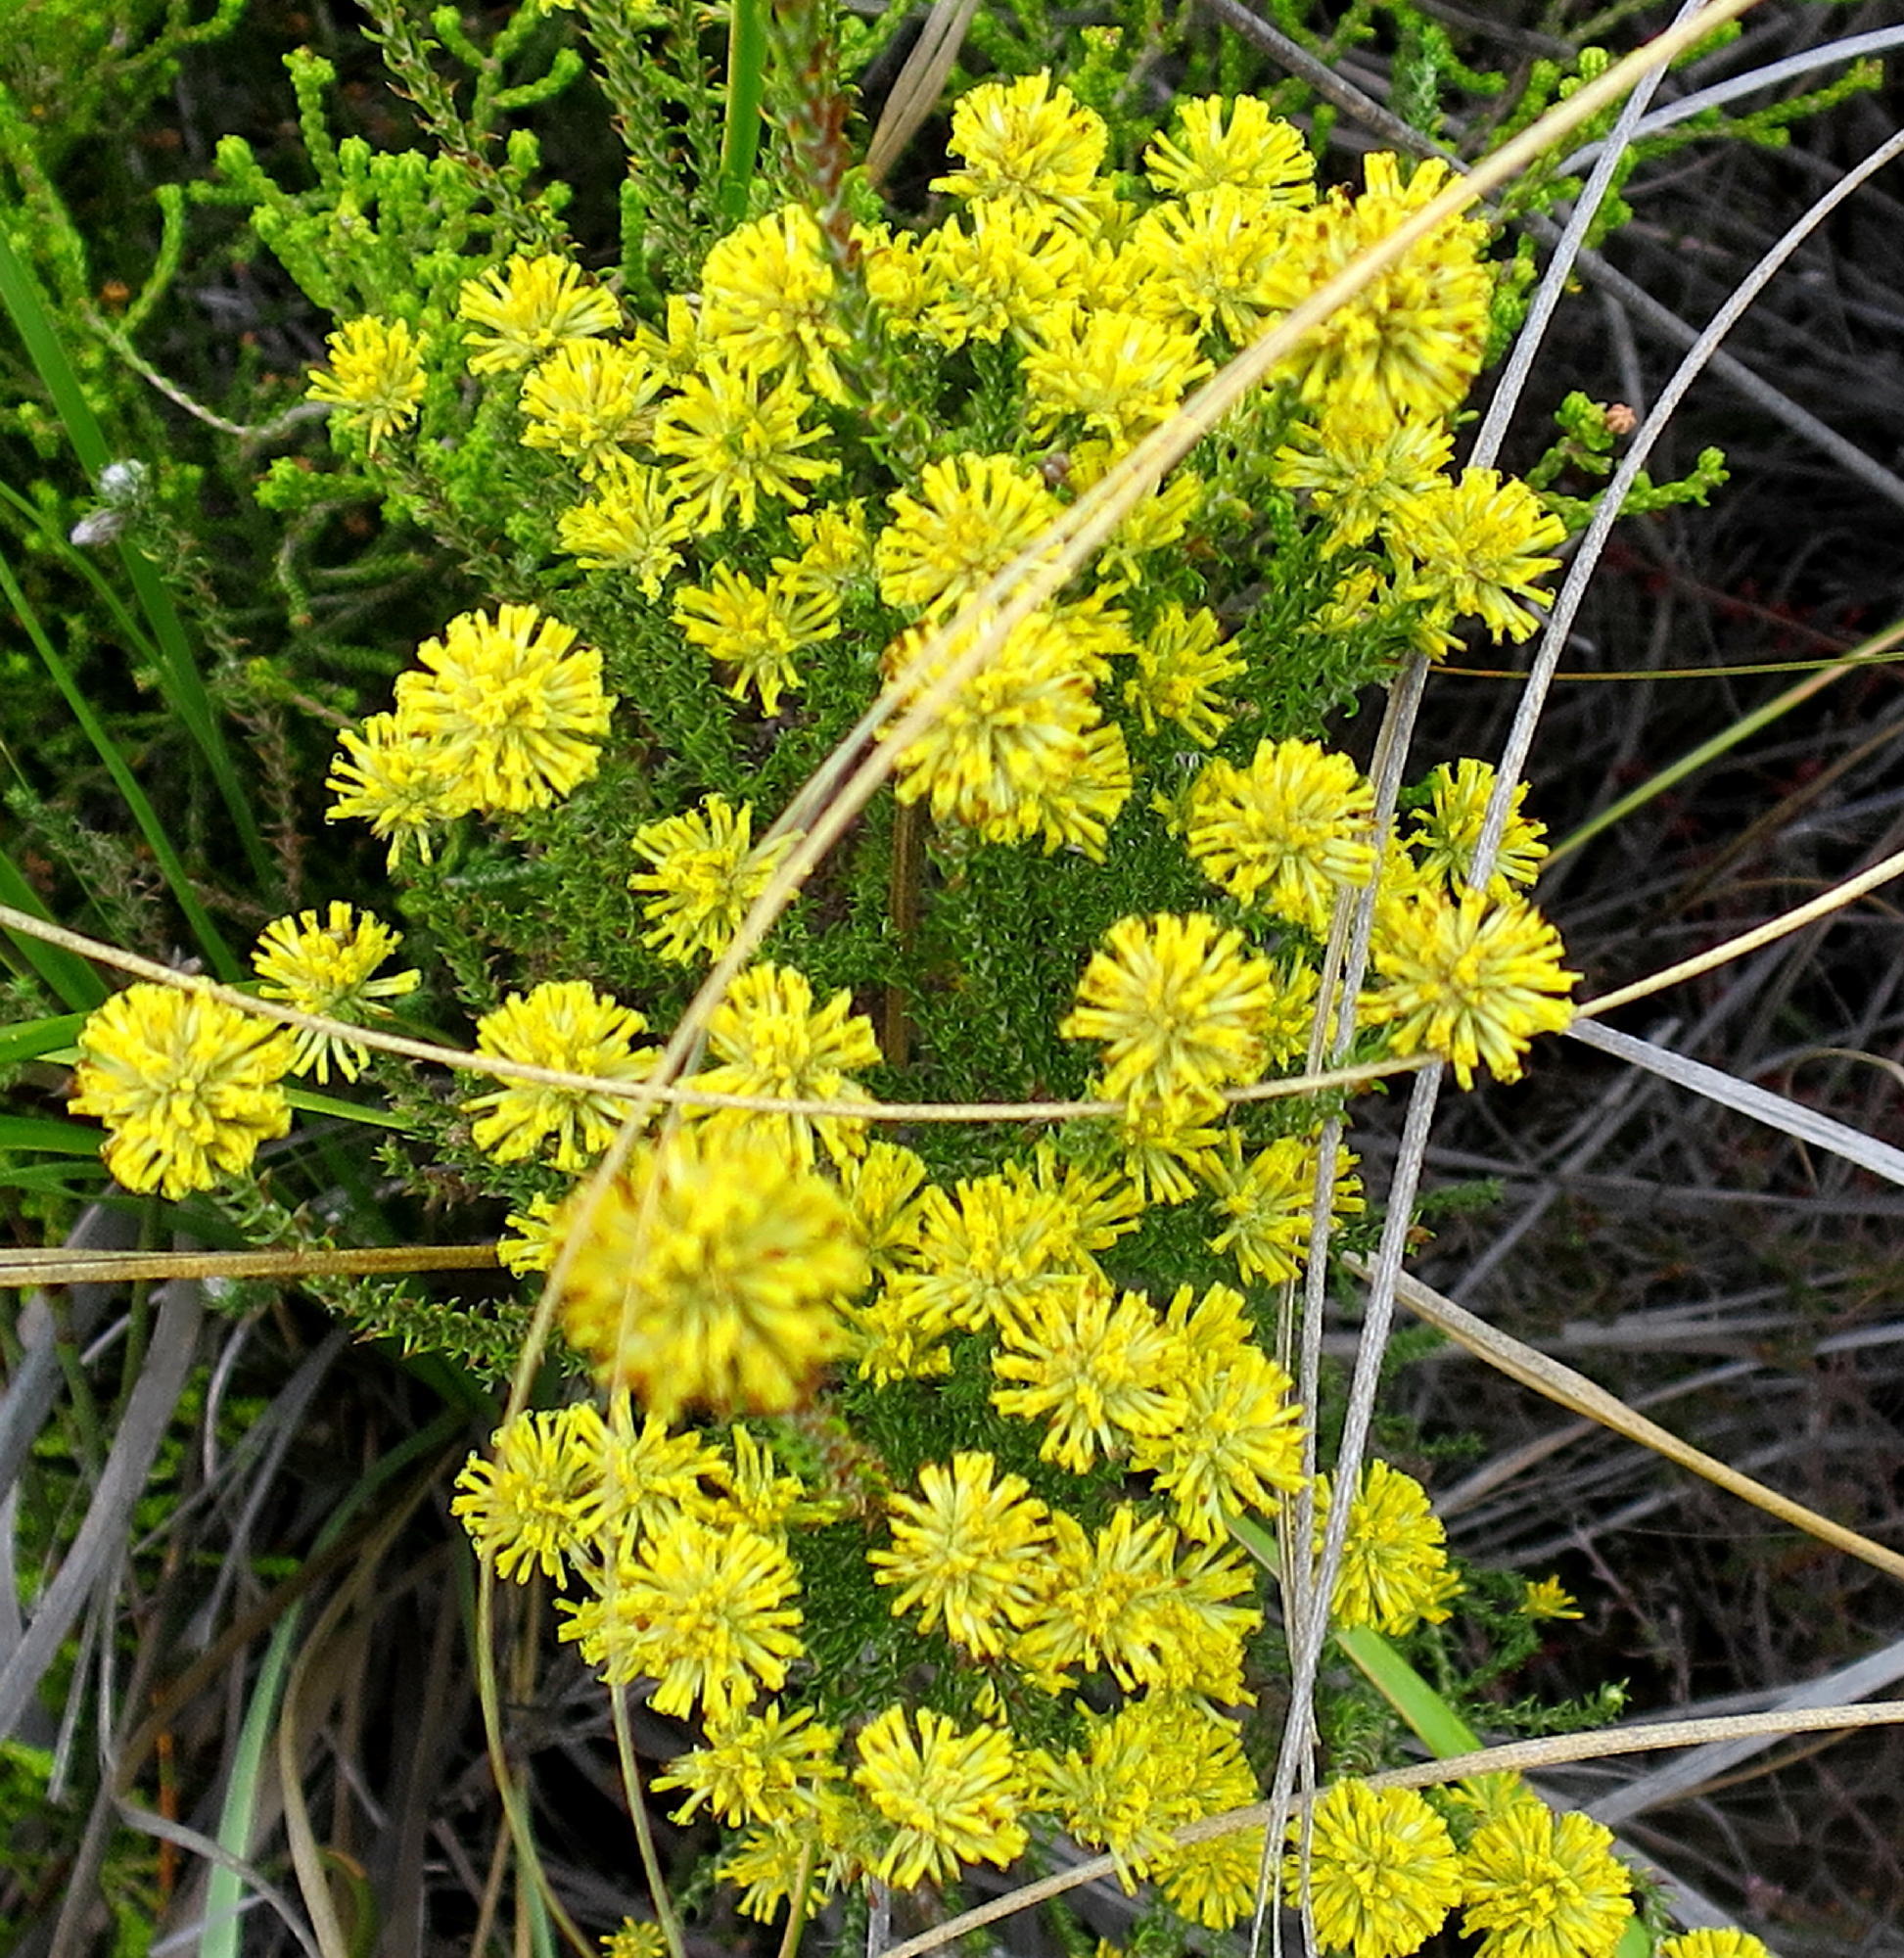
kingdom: Plantae
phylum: Tracheophyta
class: Magnoliopsida
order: Asterales
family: Asteraceae
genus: Seriphium
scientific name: Seriphium spirale
